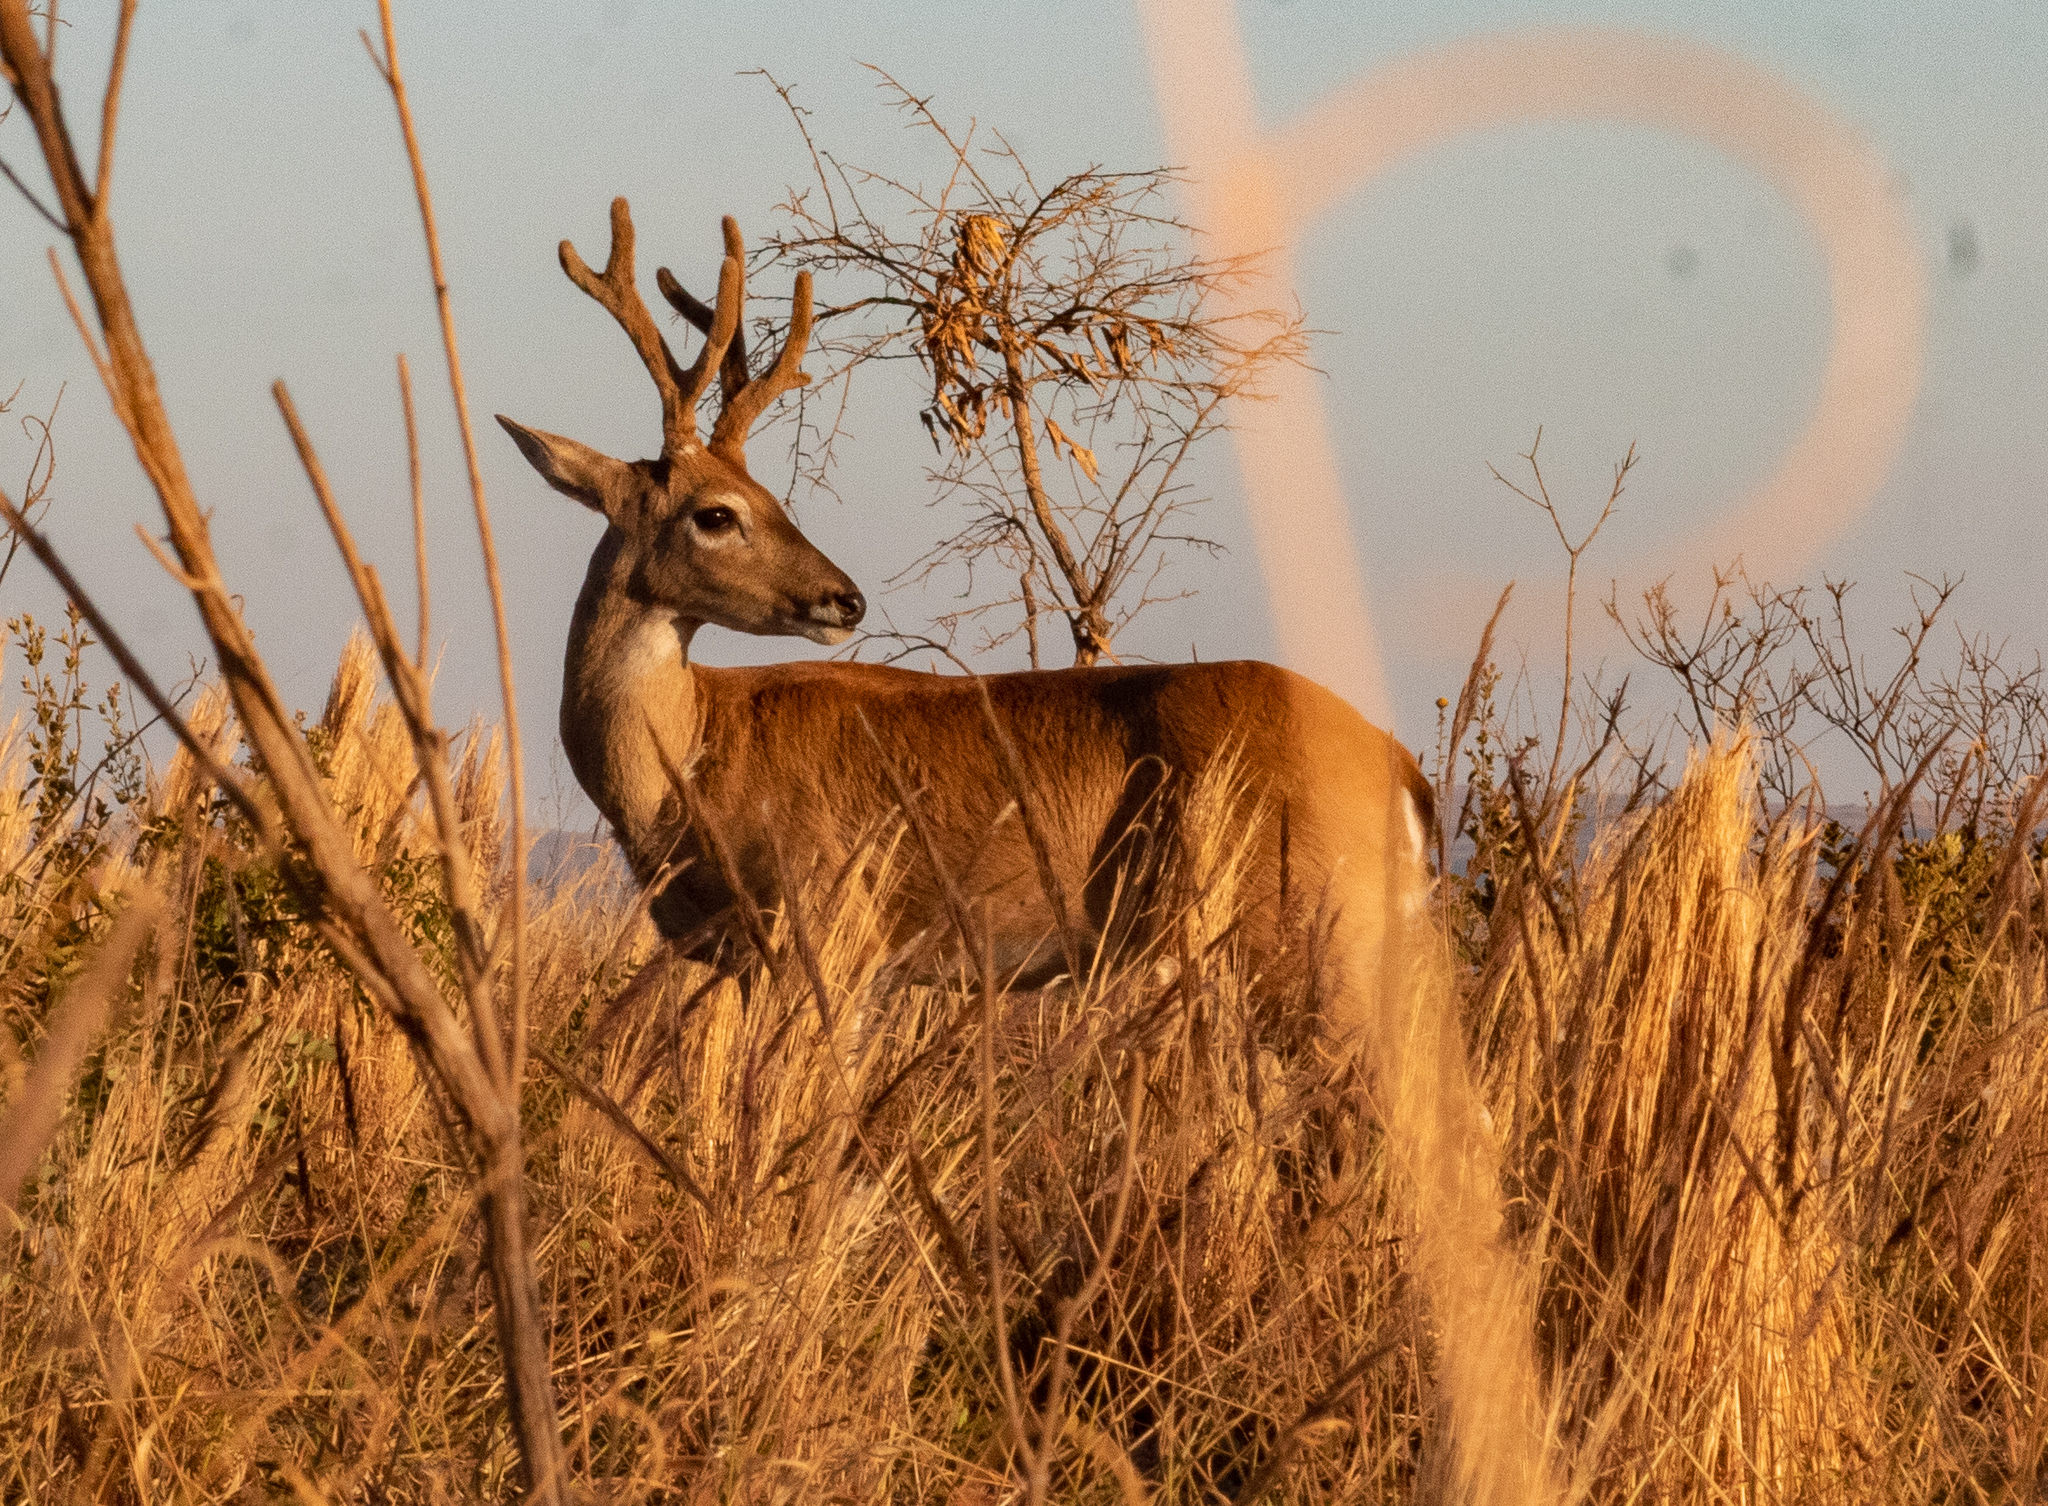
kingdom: Animalia
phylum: Chordata
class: Mammalia
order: Artiodactyla
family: Cervidae
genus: Ozotoceros
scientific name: Ozotoceros bezoarticus
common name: Pampas deer
